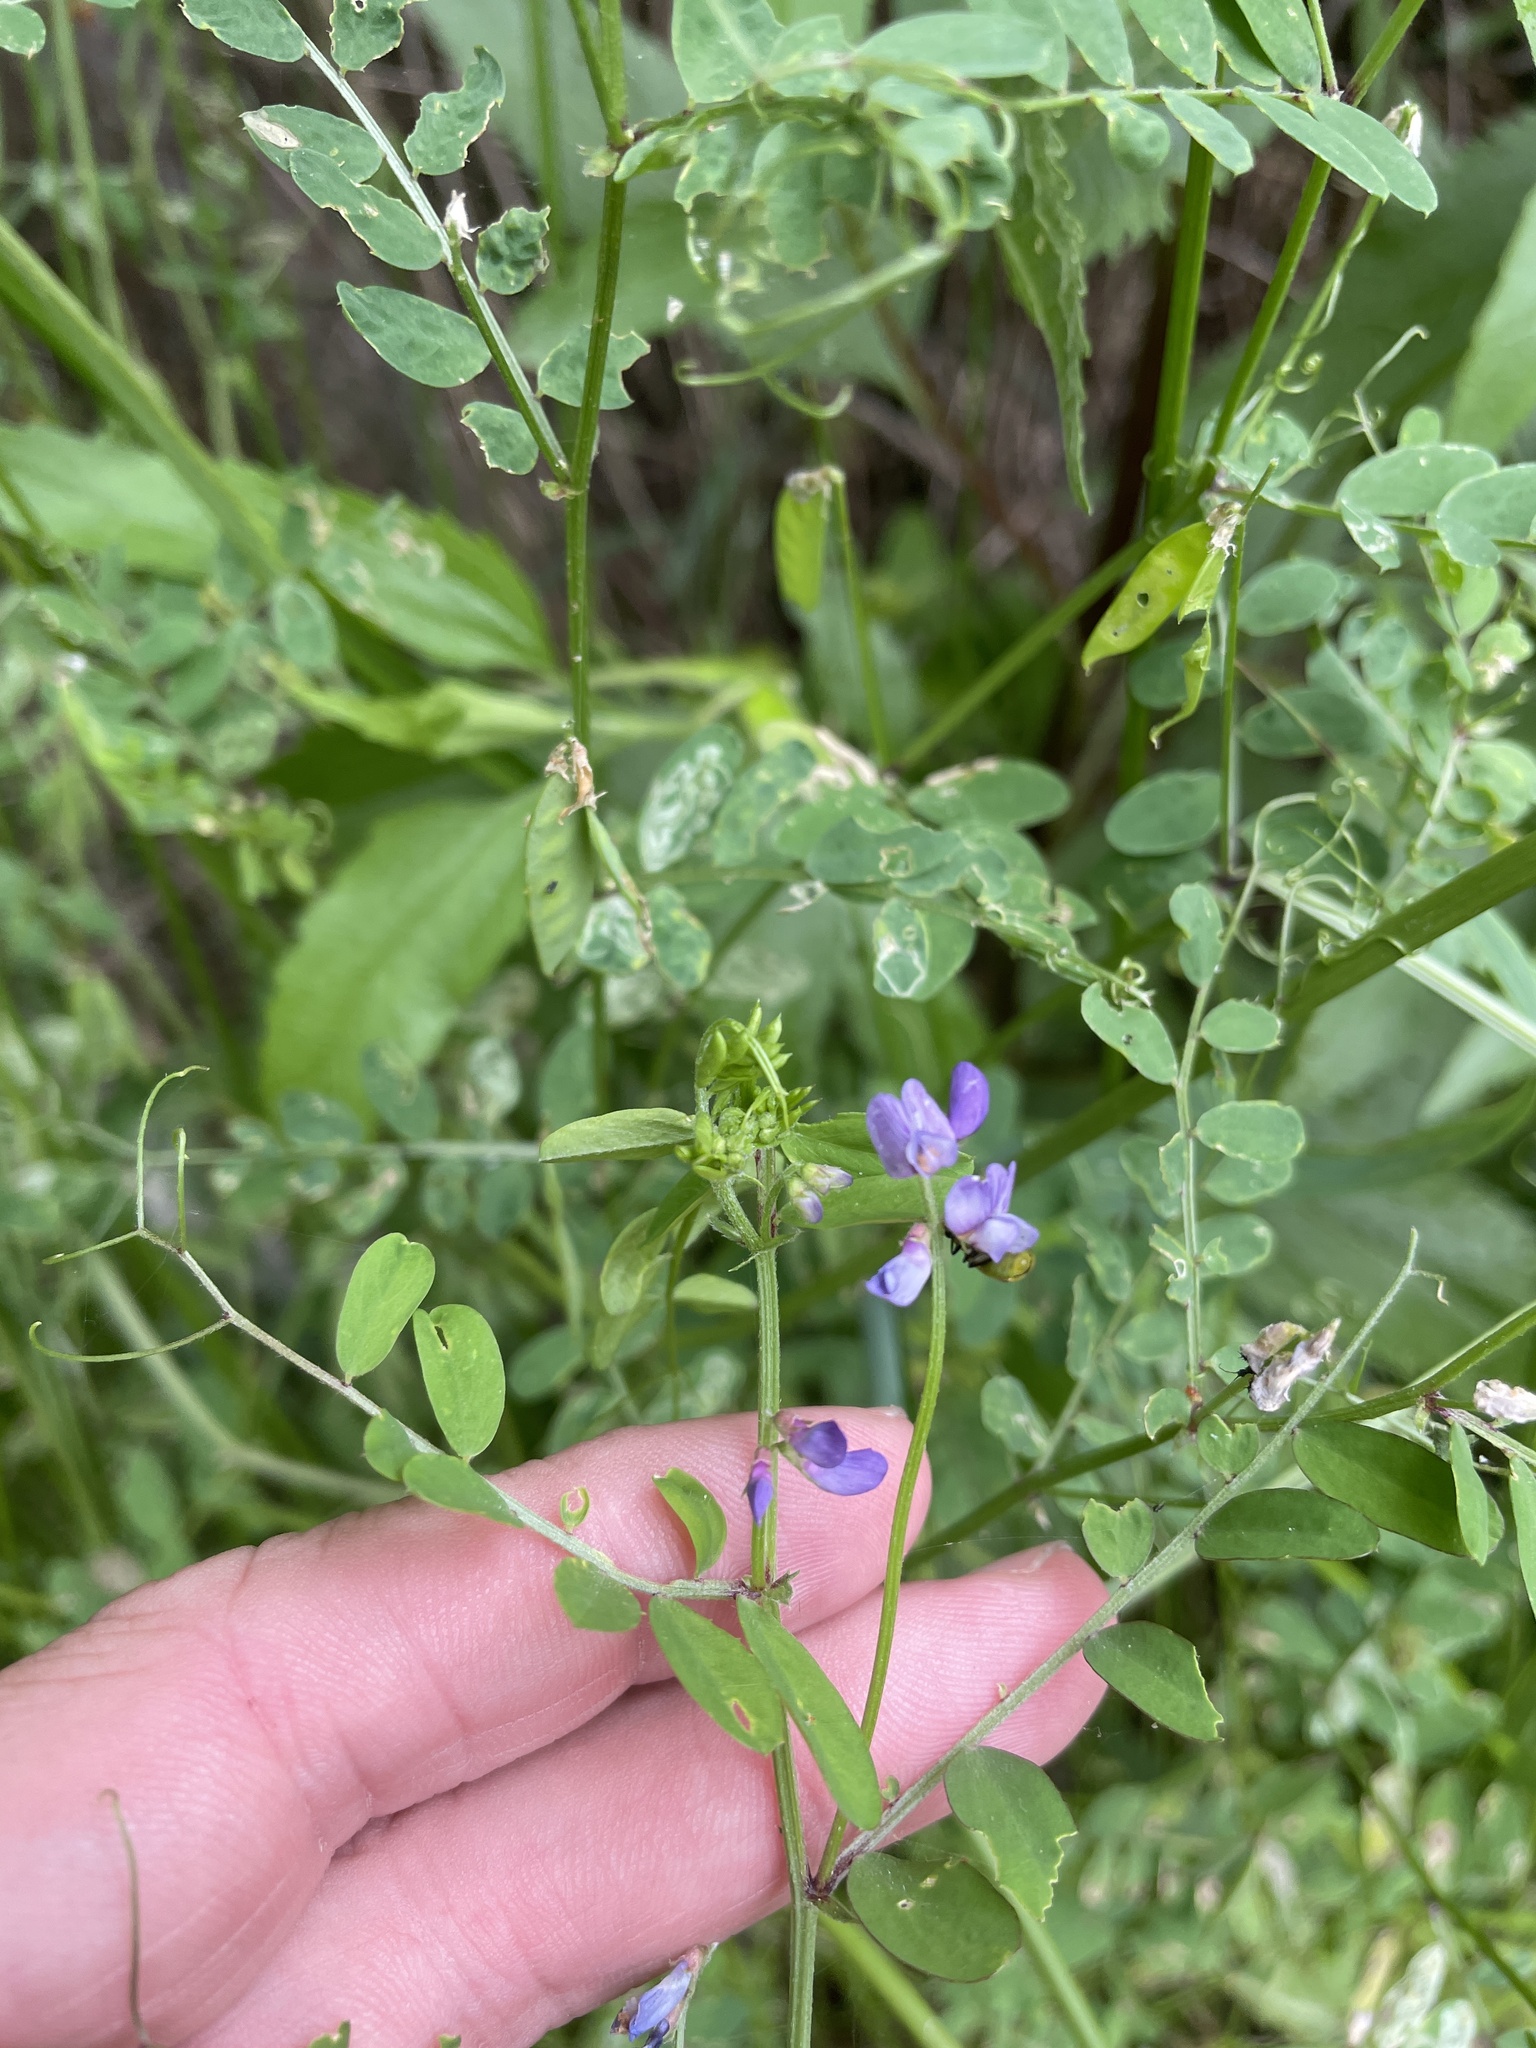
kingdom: Plantae
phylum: Tracheophyta
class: Magnoliopsida
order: Fabales
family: Fabaceae
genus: Vicia
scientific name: Vicia ludoviciana
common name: Louisiana vetch
